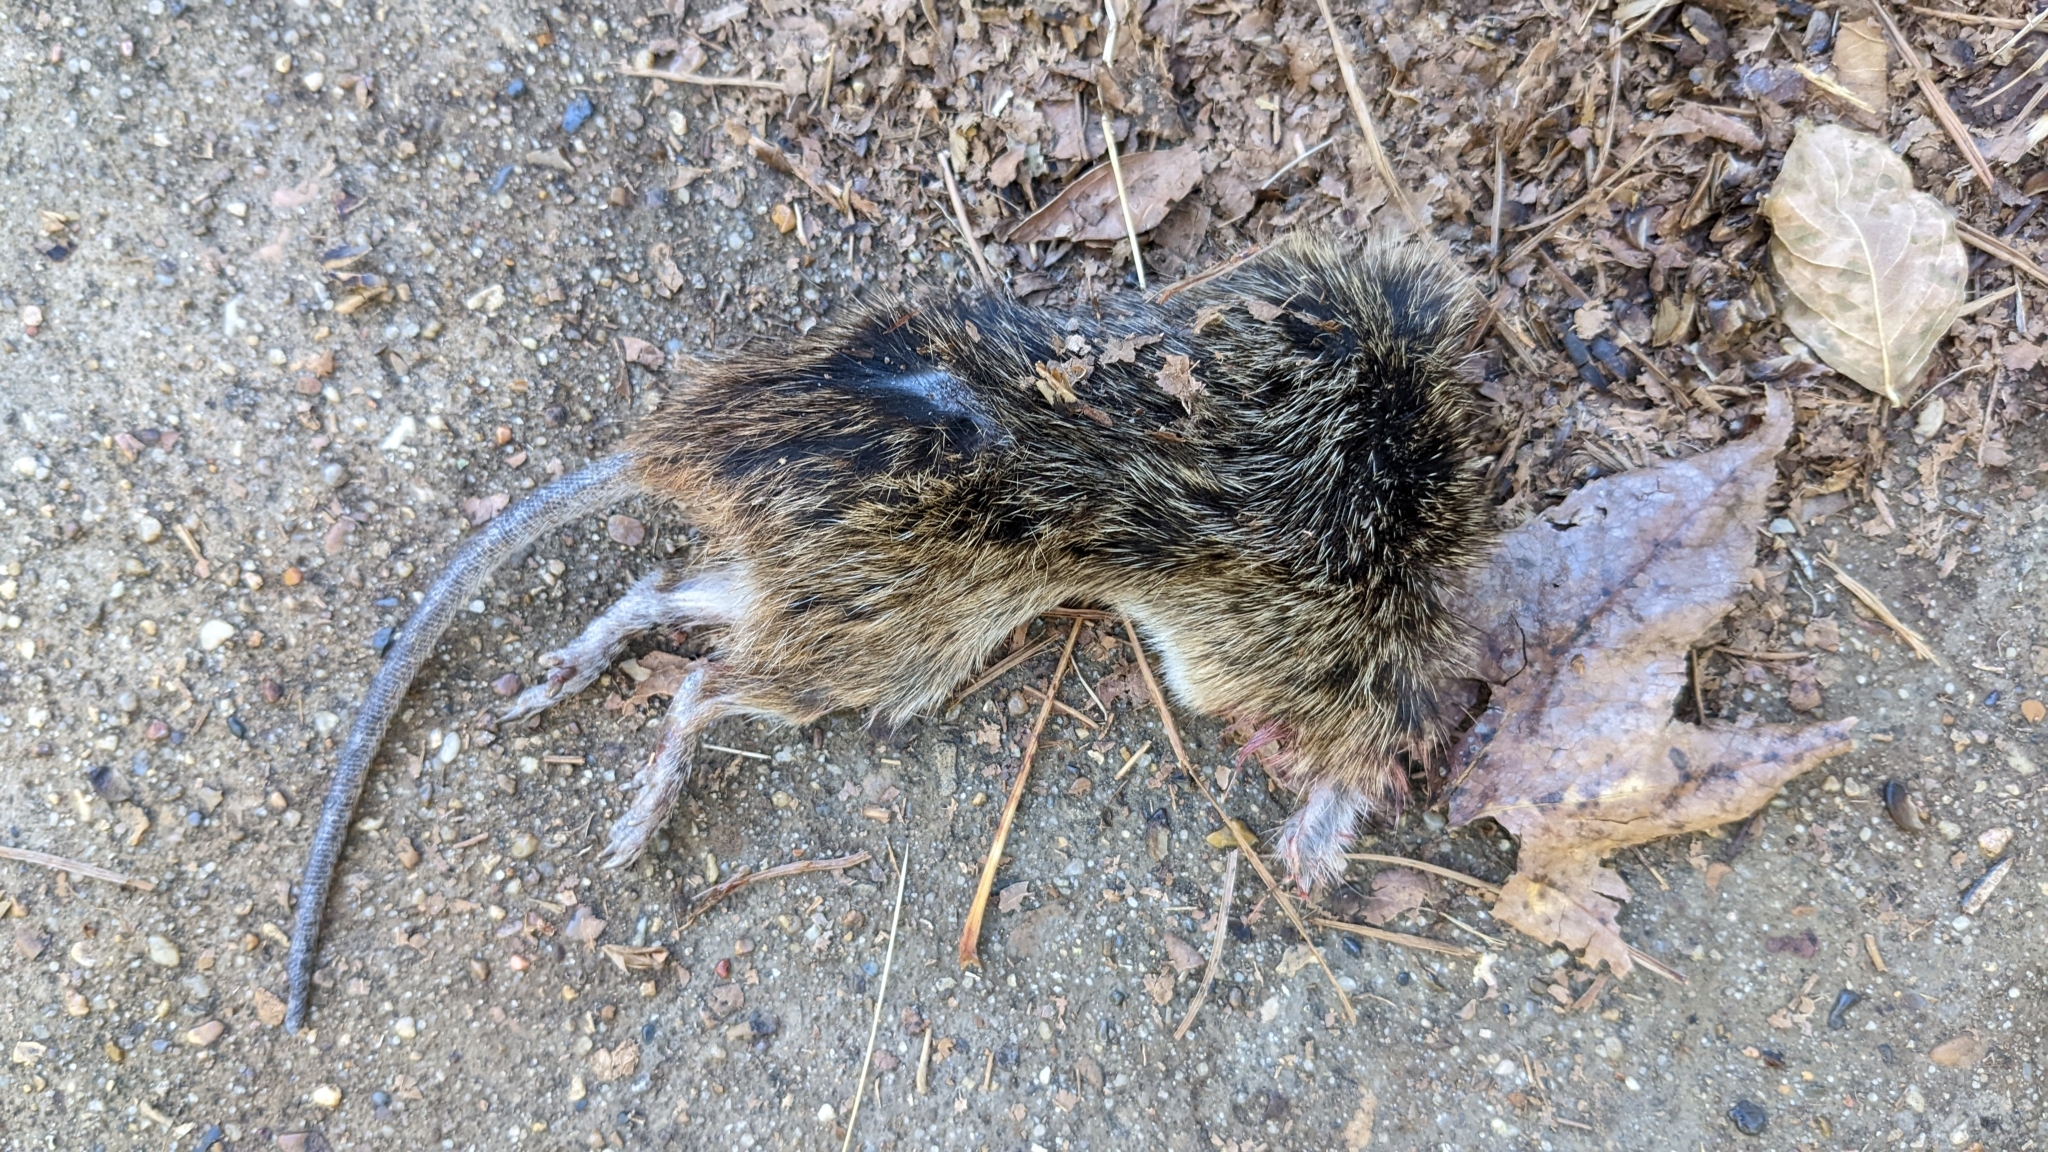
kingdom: Animalia
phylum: Chordata
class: Mammalia
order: Rodentia
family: Cricetidae
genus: Sigmodon
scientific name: Sigmodon hispidus
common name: Hispid cotton rat
